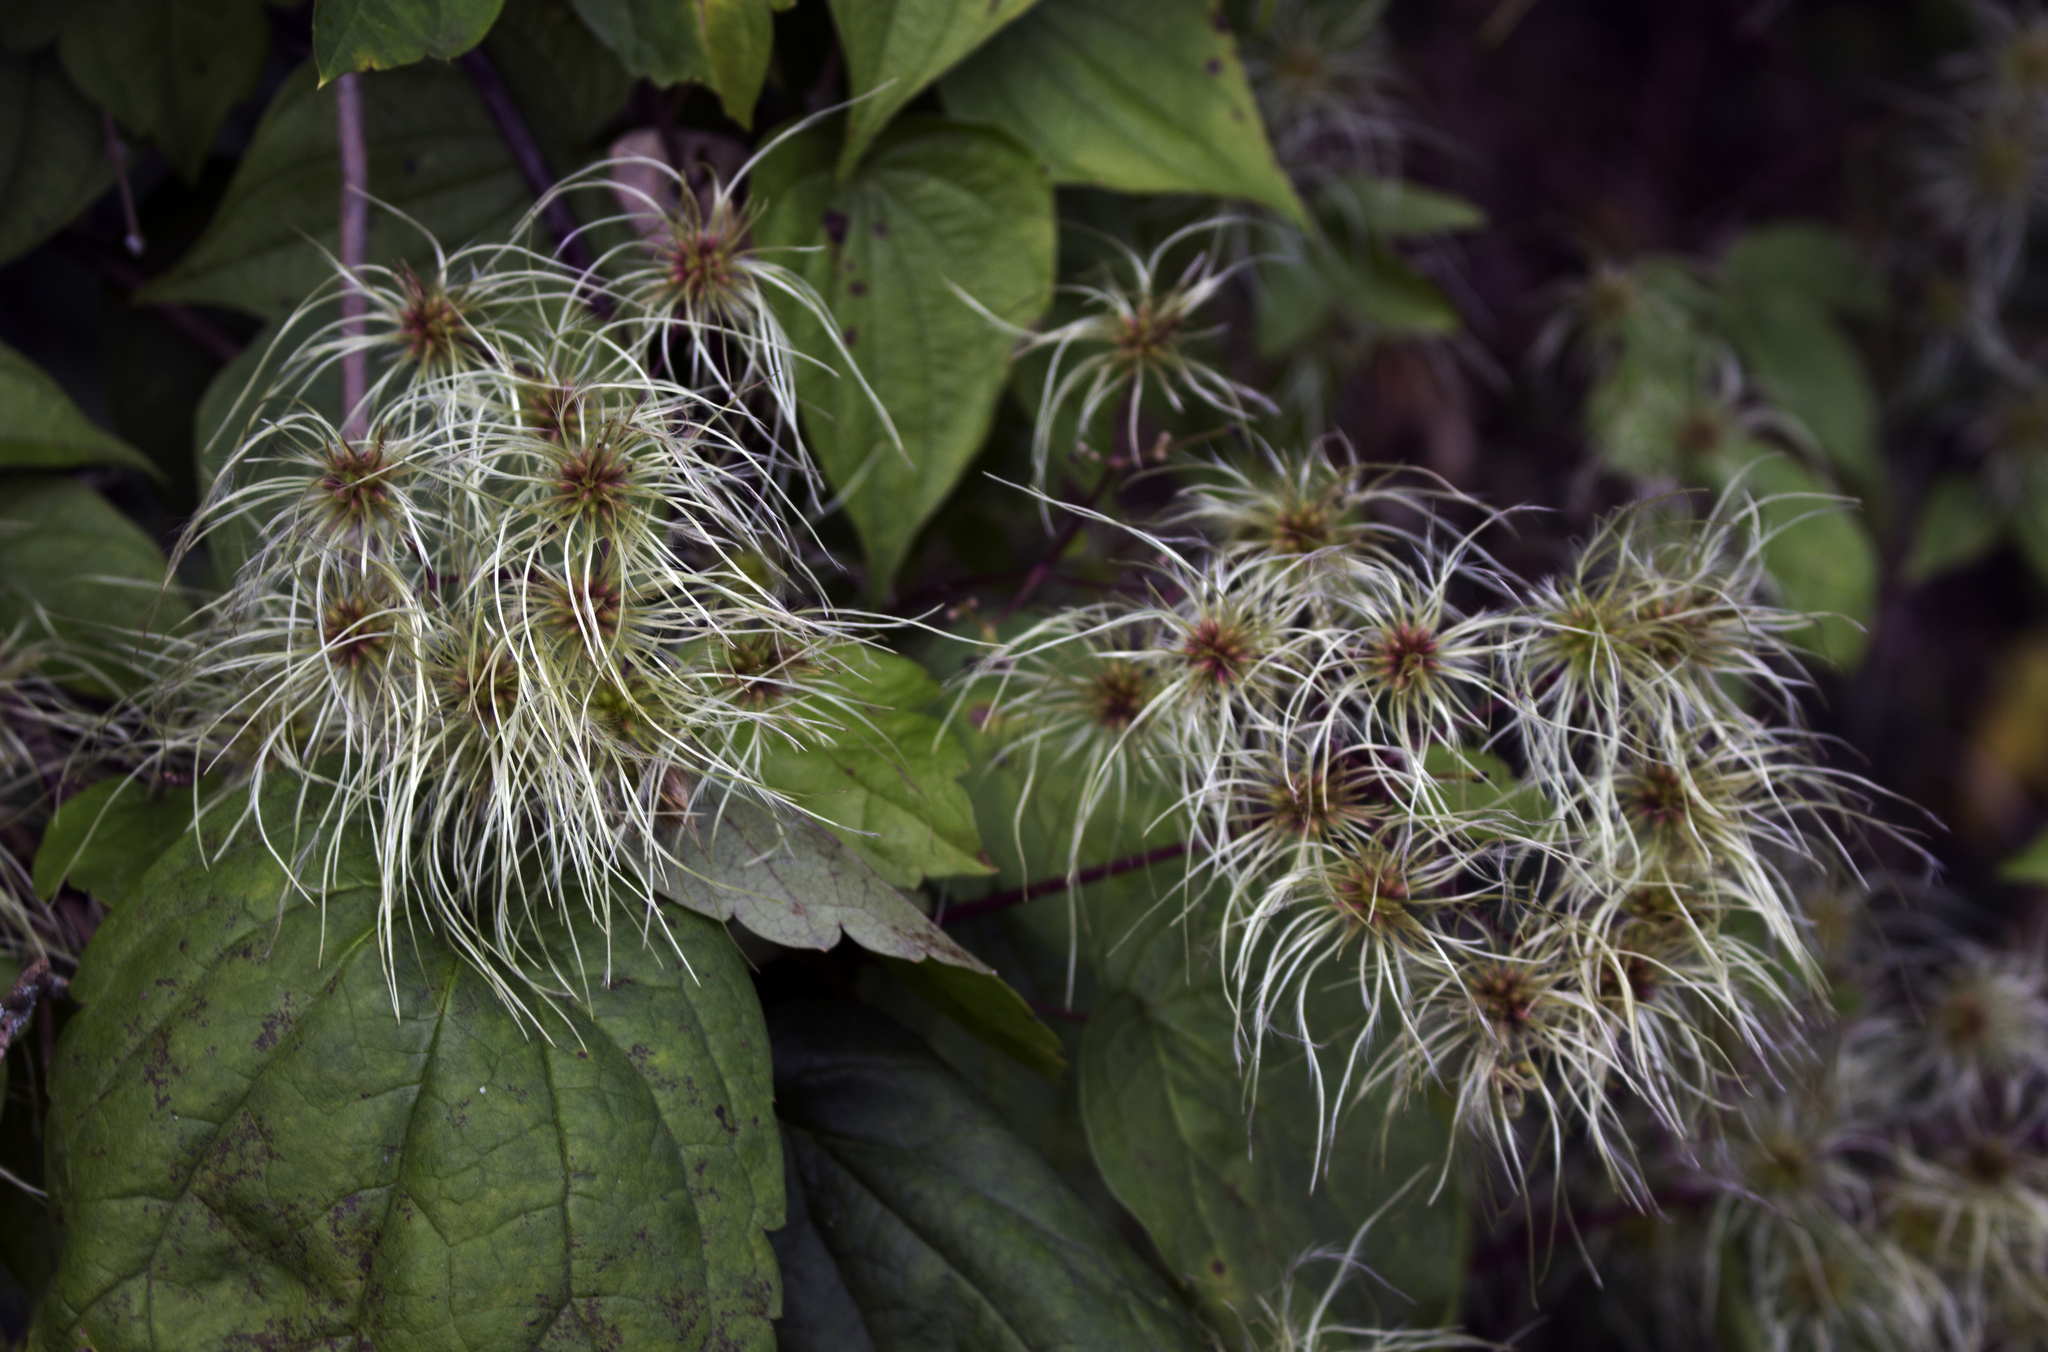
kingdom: Plantae
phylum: Tracheophyta
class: Magnoliopsida
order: Ranunculales
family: Ranunculaceae
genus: Clematis
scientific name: Clematis virginiana
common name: Virgin's-bower
